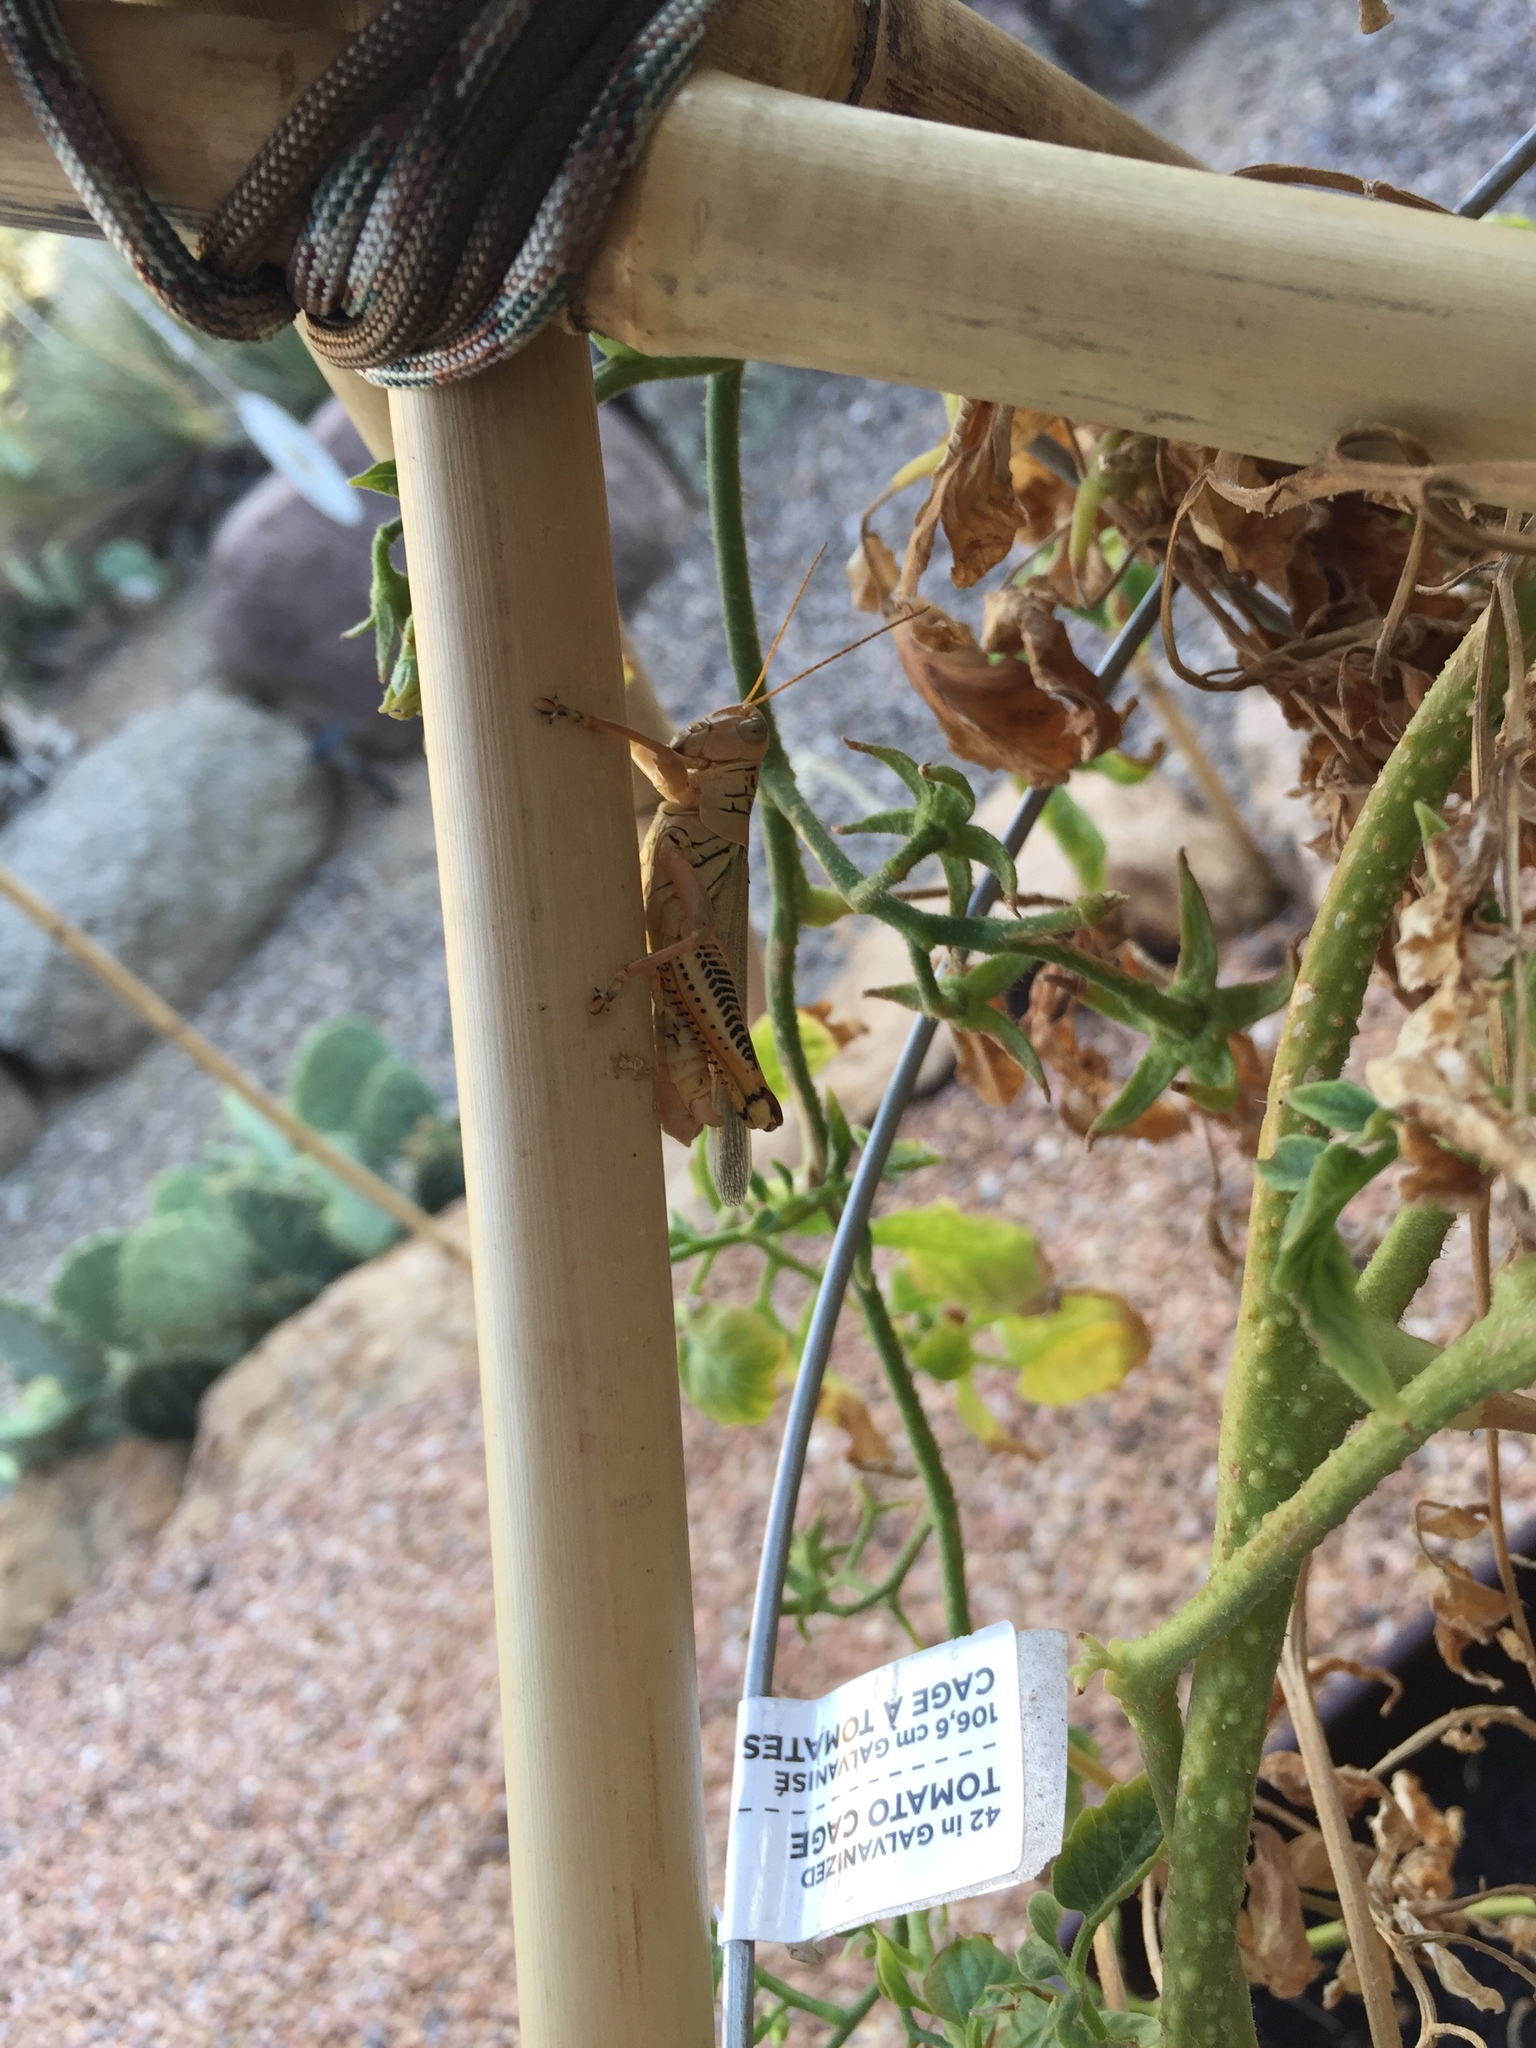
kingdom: Animalia
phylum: Arthropoda
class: Insecta
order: Orthoptera
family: Acrididae
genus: Melanoplus
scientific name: Melanoplus differentialis
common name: Differential grasshopper
